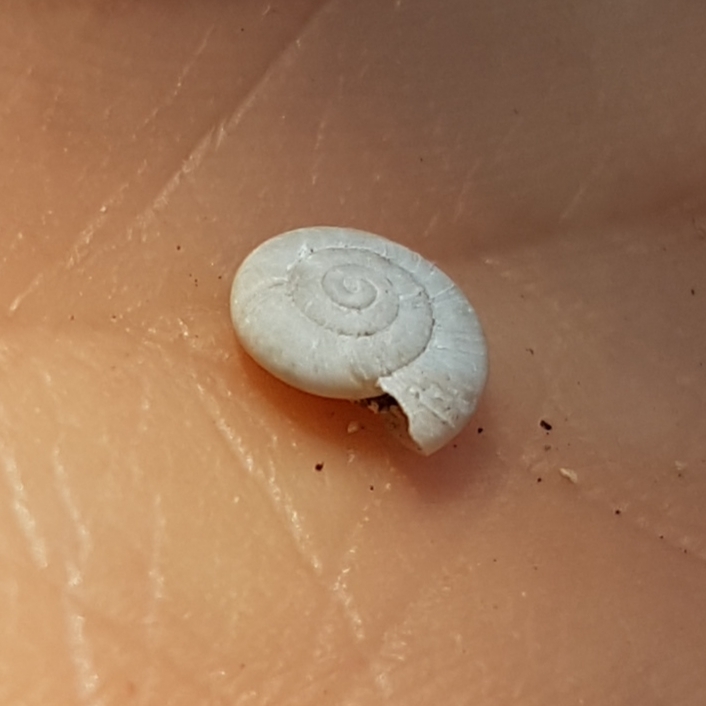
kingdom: Animalia
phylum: Mollusca
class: Gastropoda
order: Stylommatophora
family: Oxychilidae
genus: Oxychilus
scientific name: Oxychilus lentiformis
